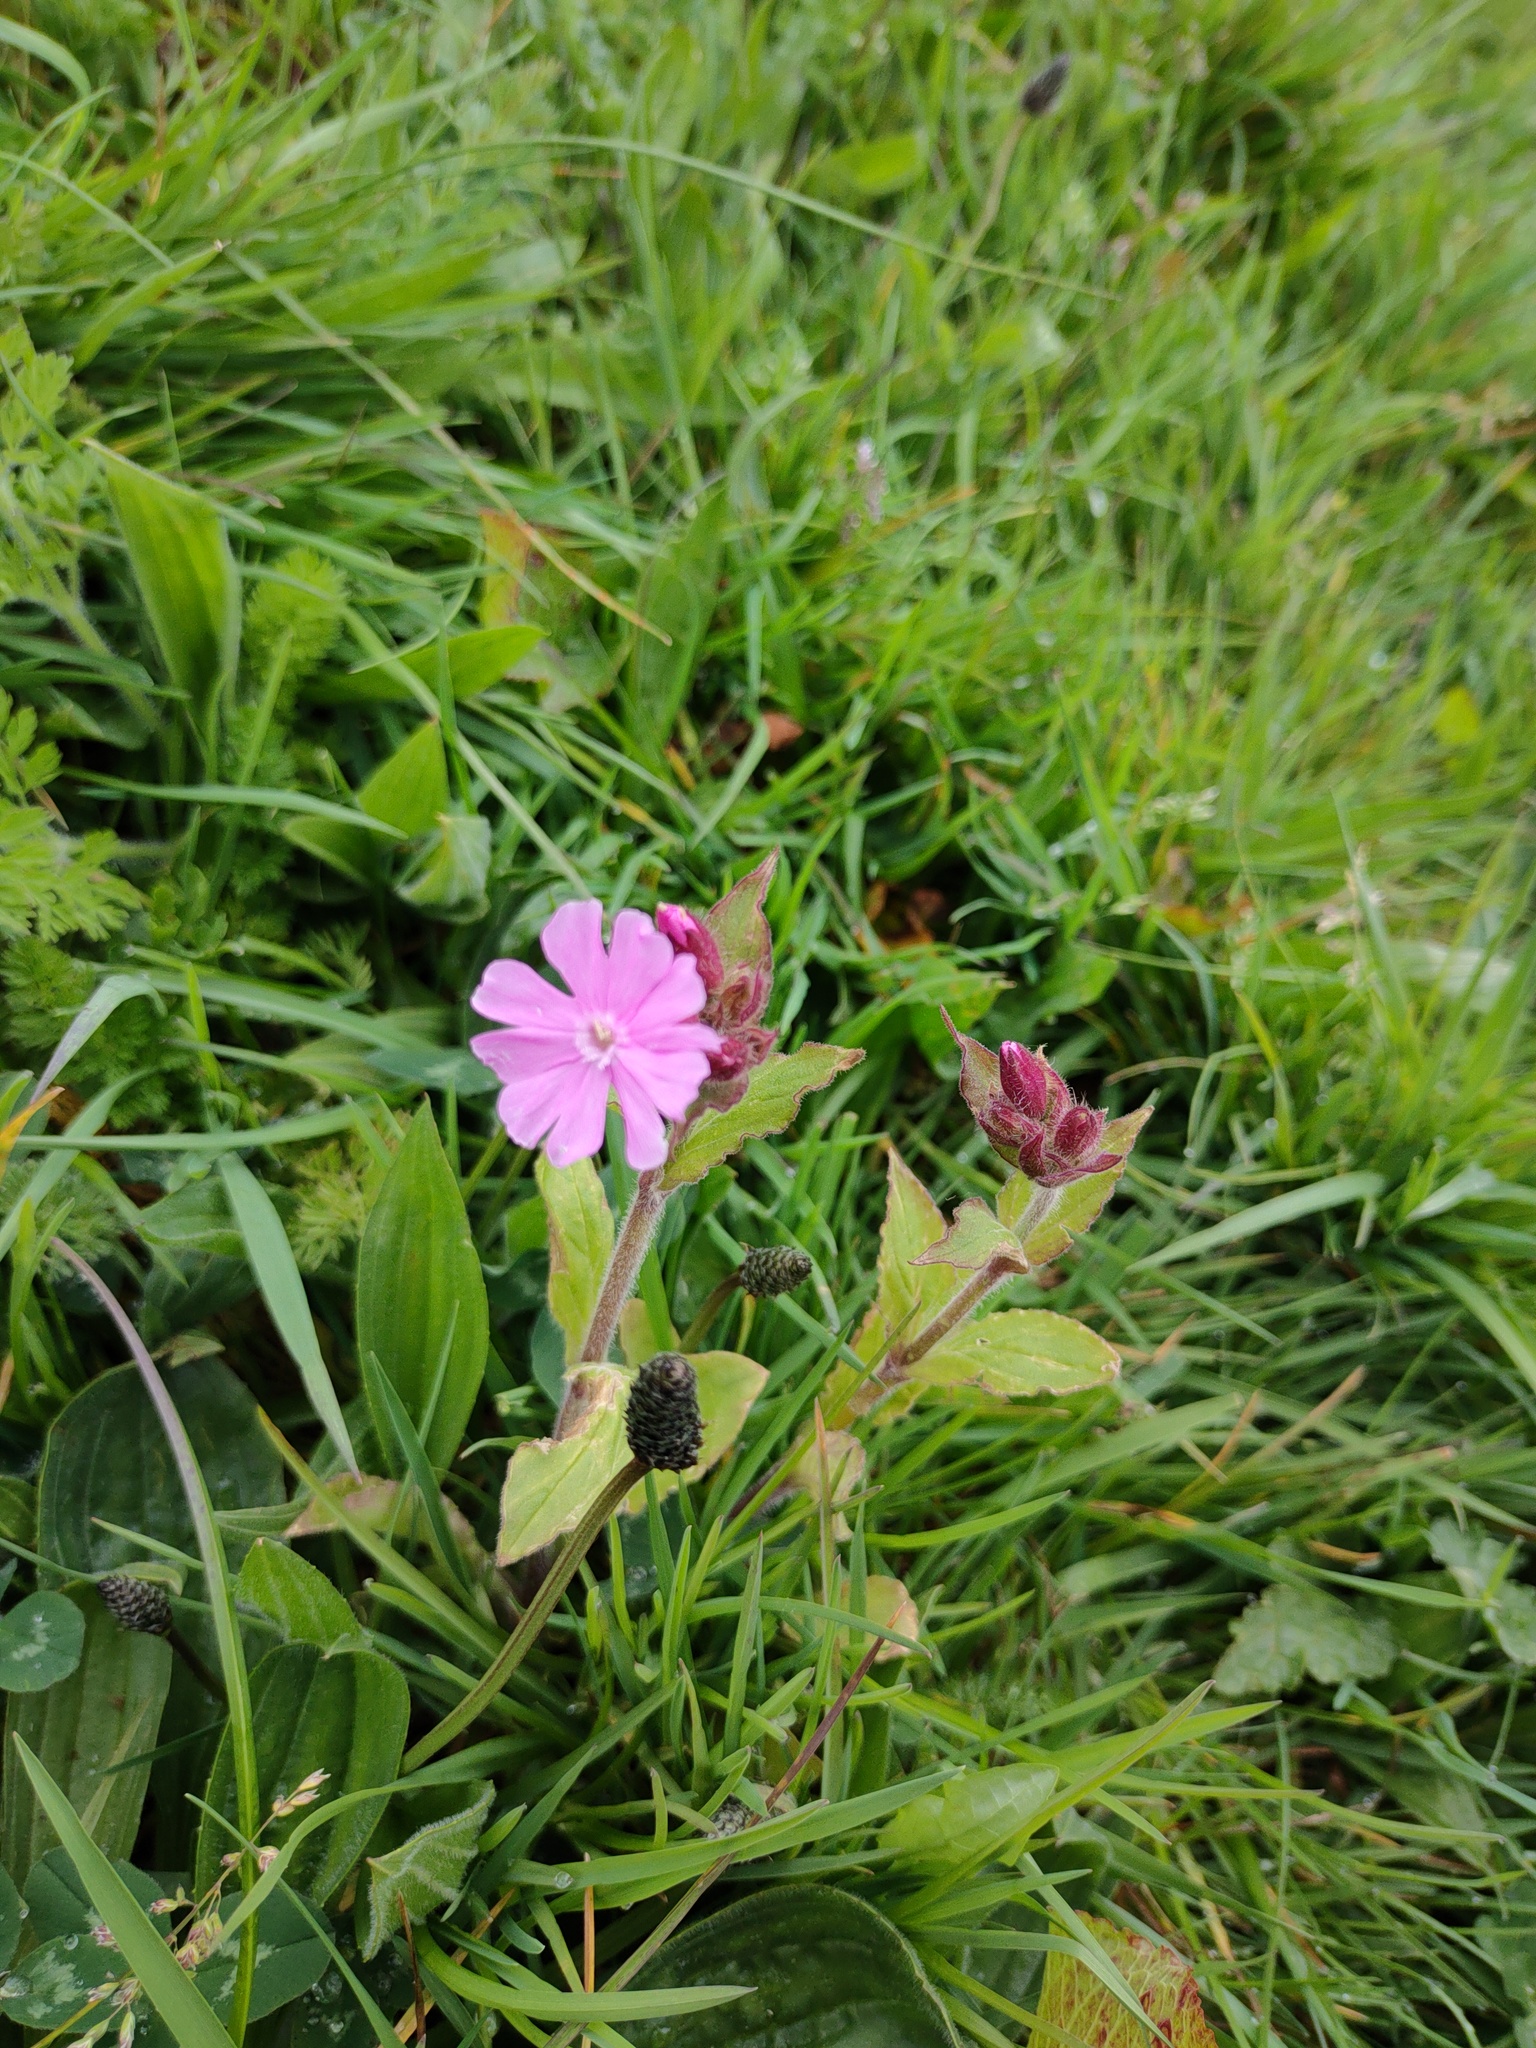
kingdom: Plantae
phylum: Tracheophyta
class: Magnoliopsida
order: Caryophyllales
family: Caryophyllaceae
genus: Silene
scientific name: Silene dioica
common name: Red campion
